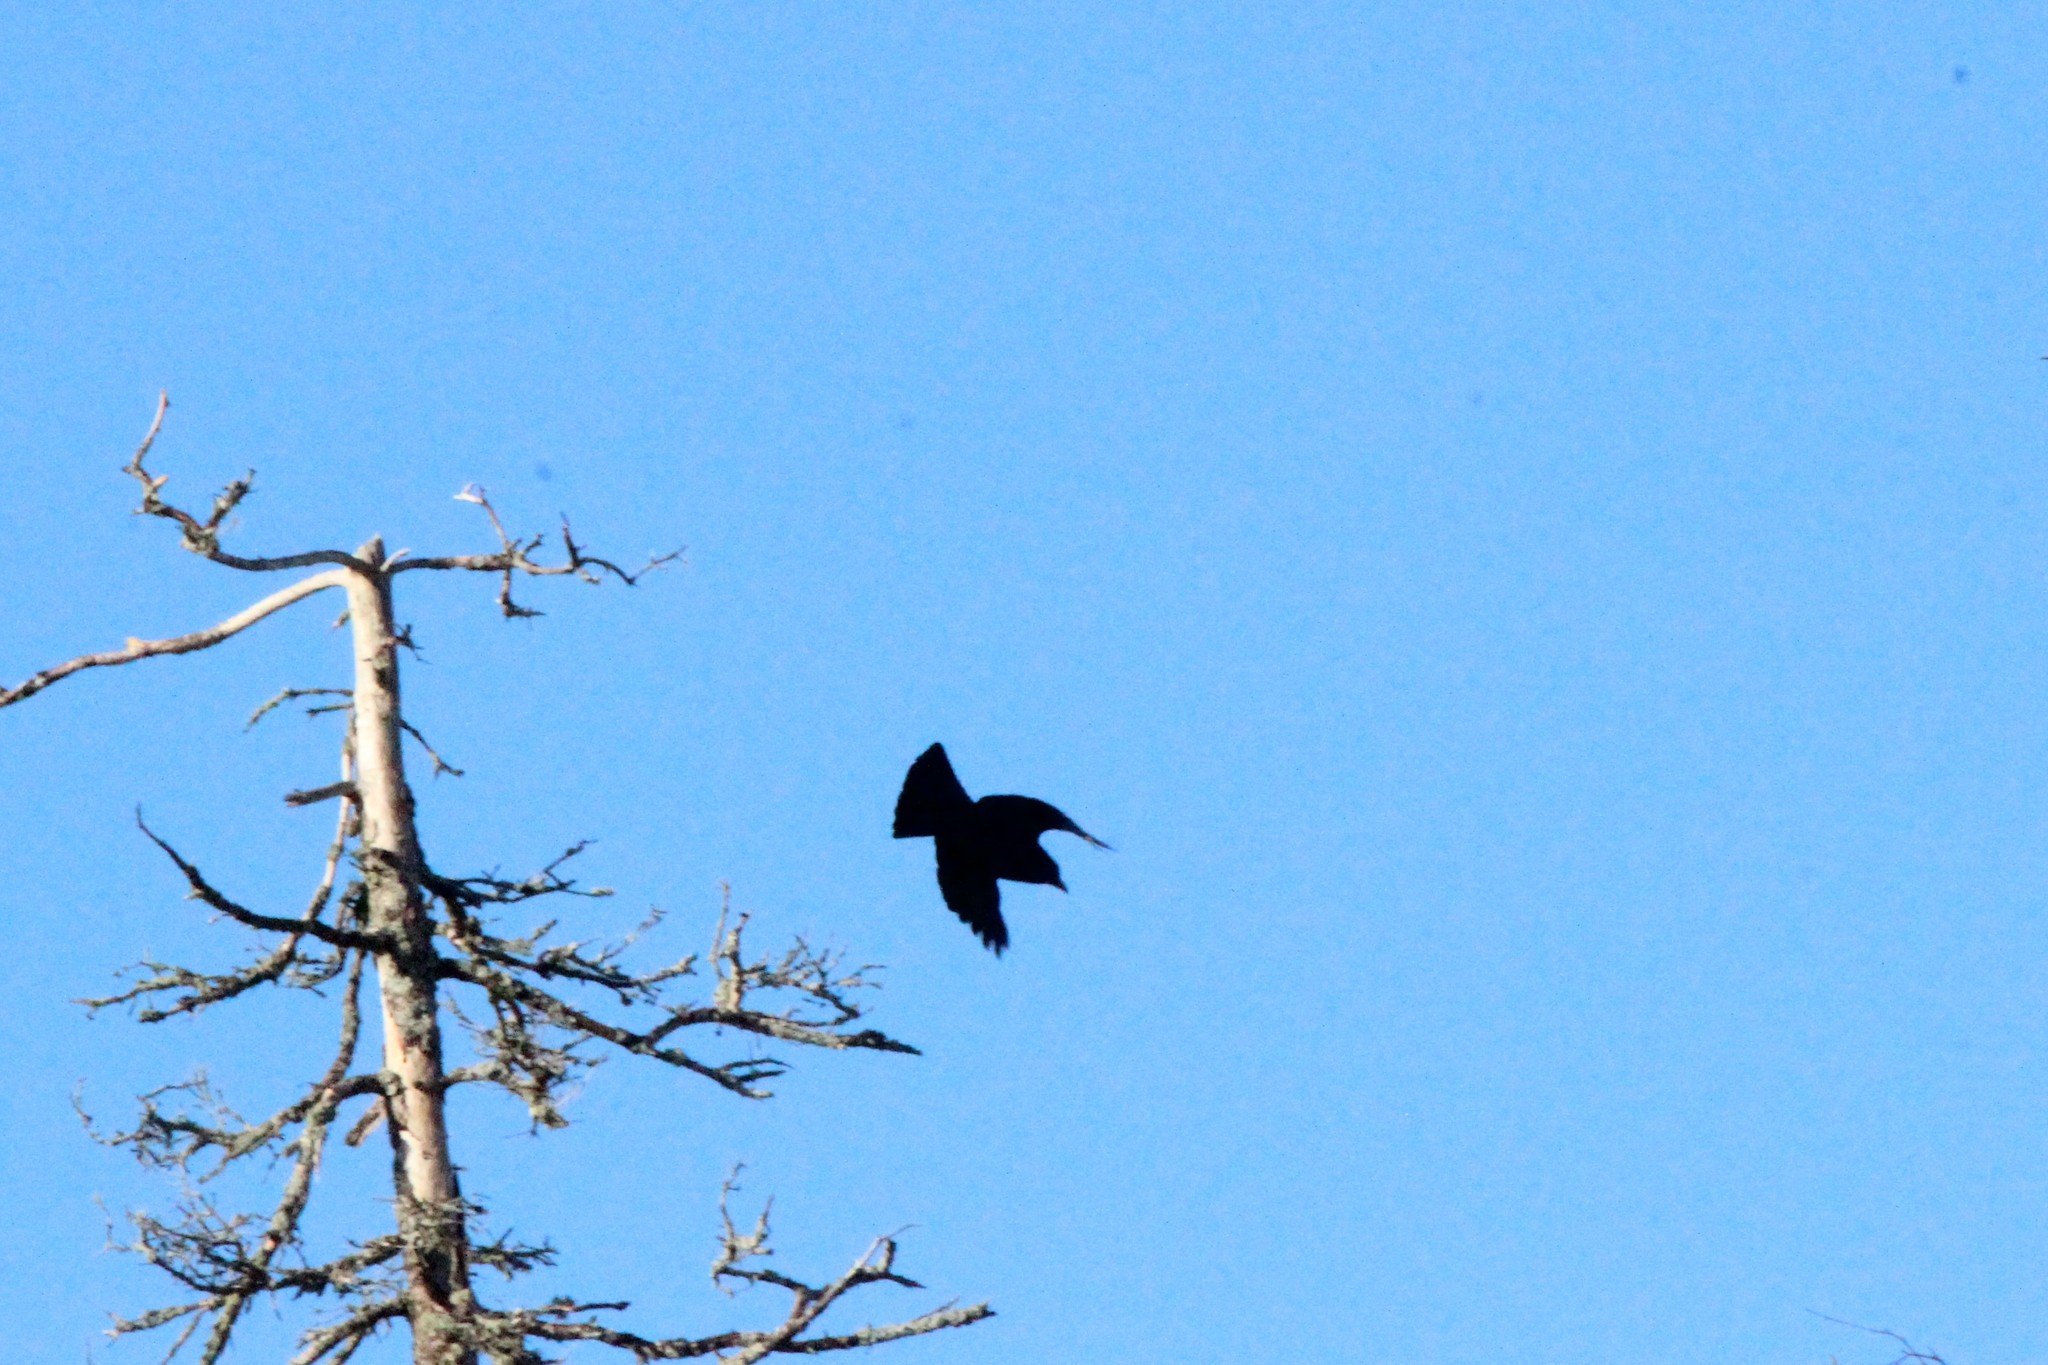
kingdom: Animalia
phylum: Chordata
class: Aves
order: Passeriformes
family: Corvidae
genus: Corvus
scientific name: Corvus brachyrhynchos
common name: American crow
